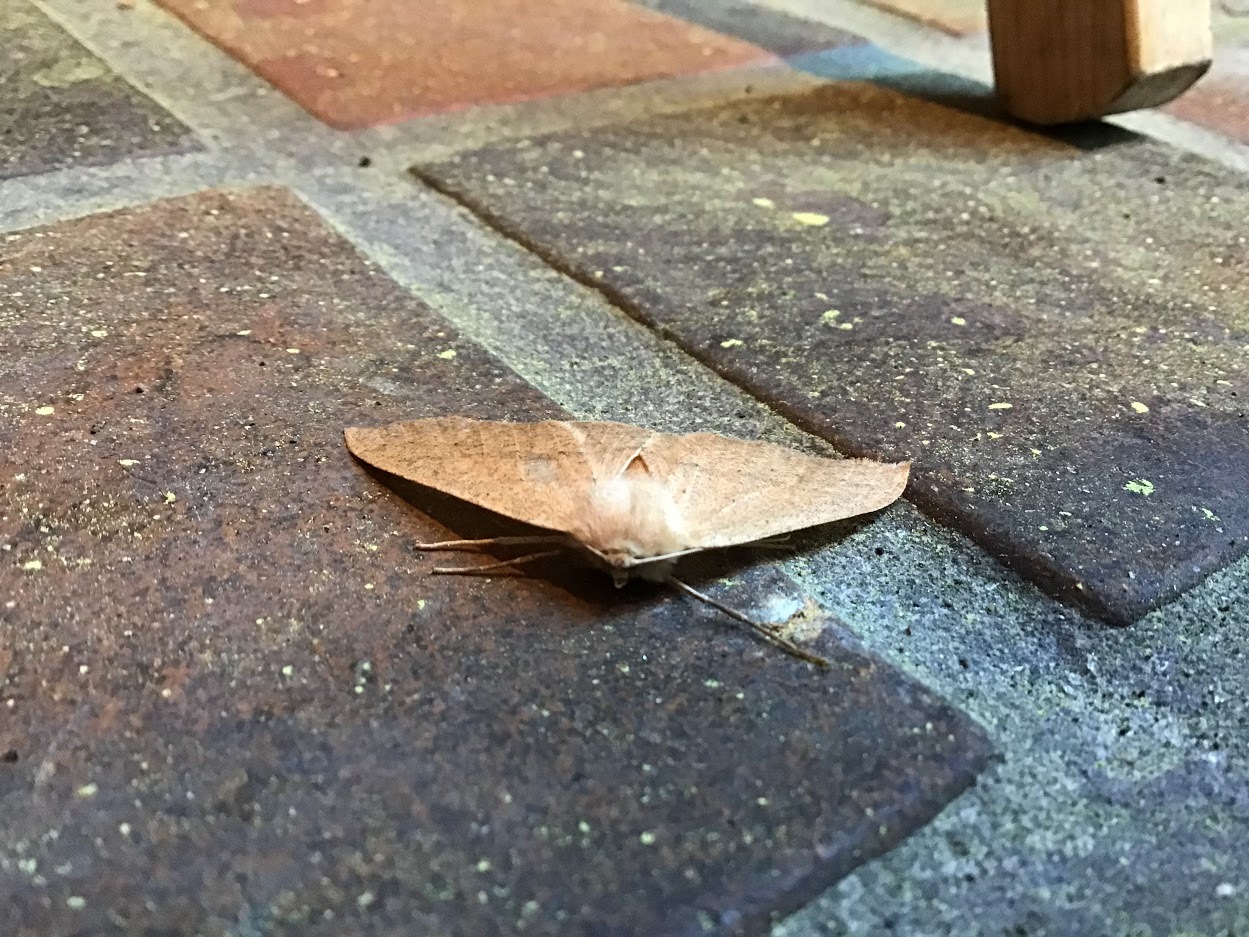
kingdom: Animalia
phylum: Arthropoda
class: Insecta
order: Lepidoptera
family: Geometridae
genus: Sabulodes
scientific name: Sabulodes aegrotata
